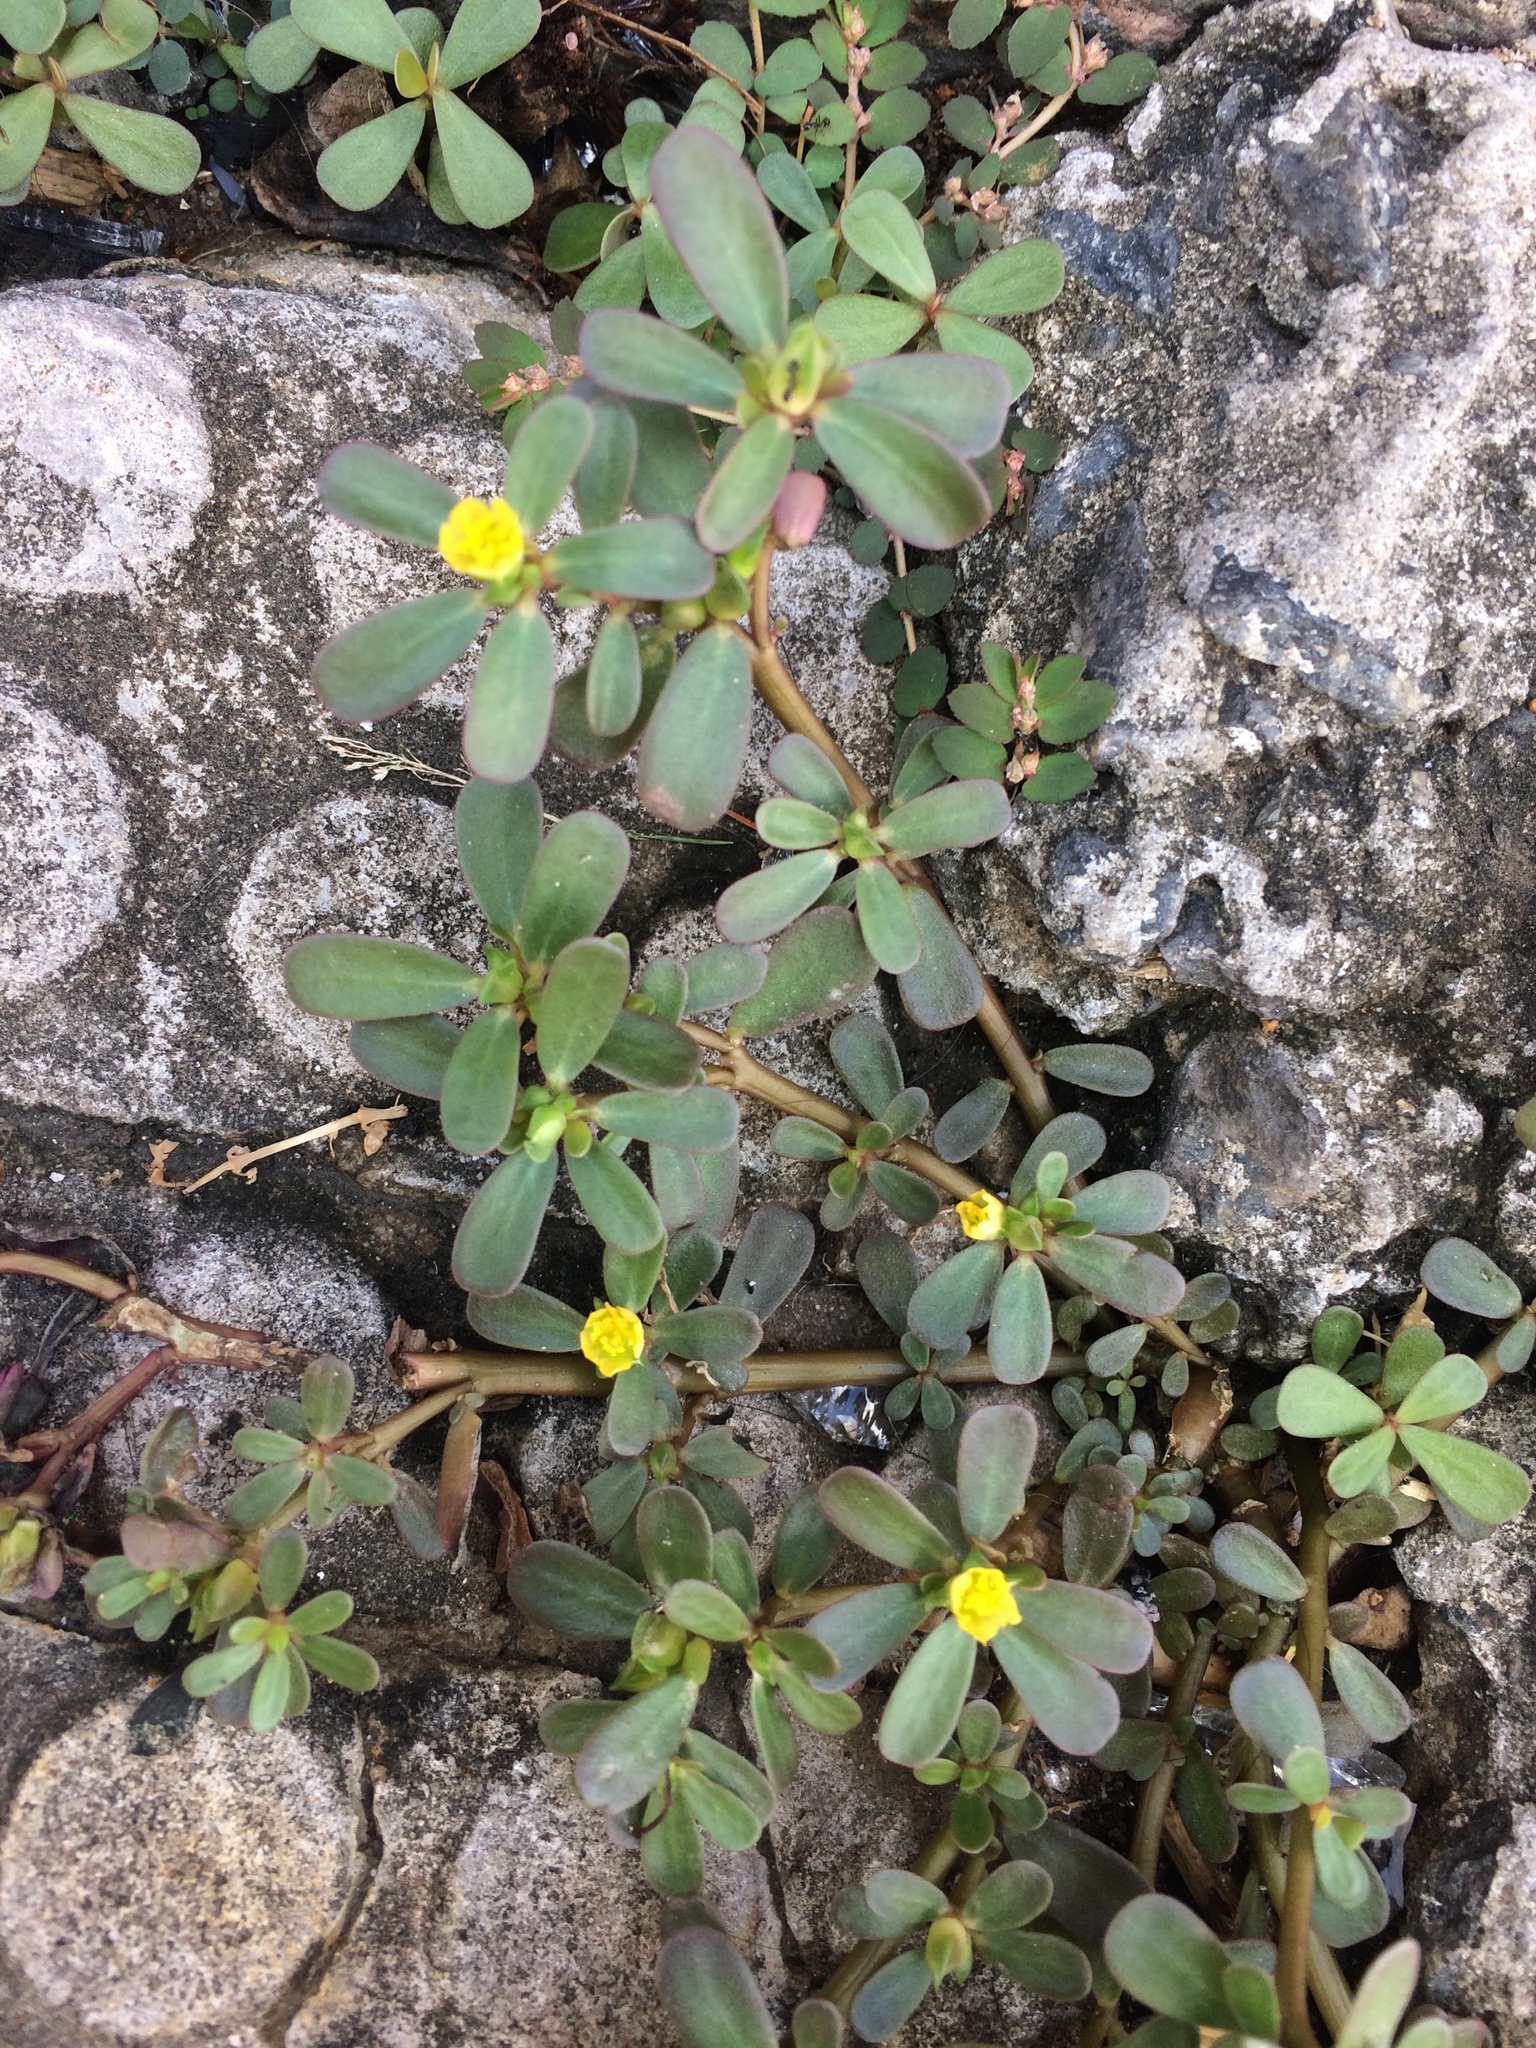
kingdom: Plantae
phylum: Tracheophyta
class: Magnoliopsida
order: Caryophyllales
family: Portulacaceae
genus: Portulaca
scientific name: Portulaca oleracea
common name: Common purslane
